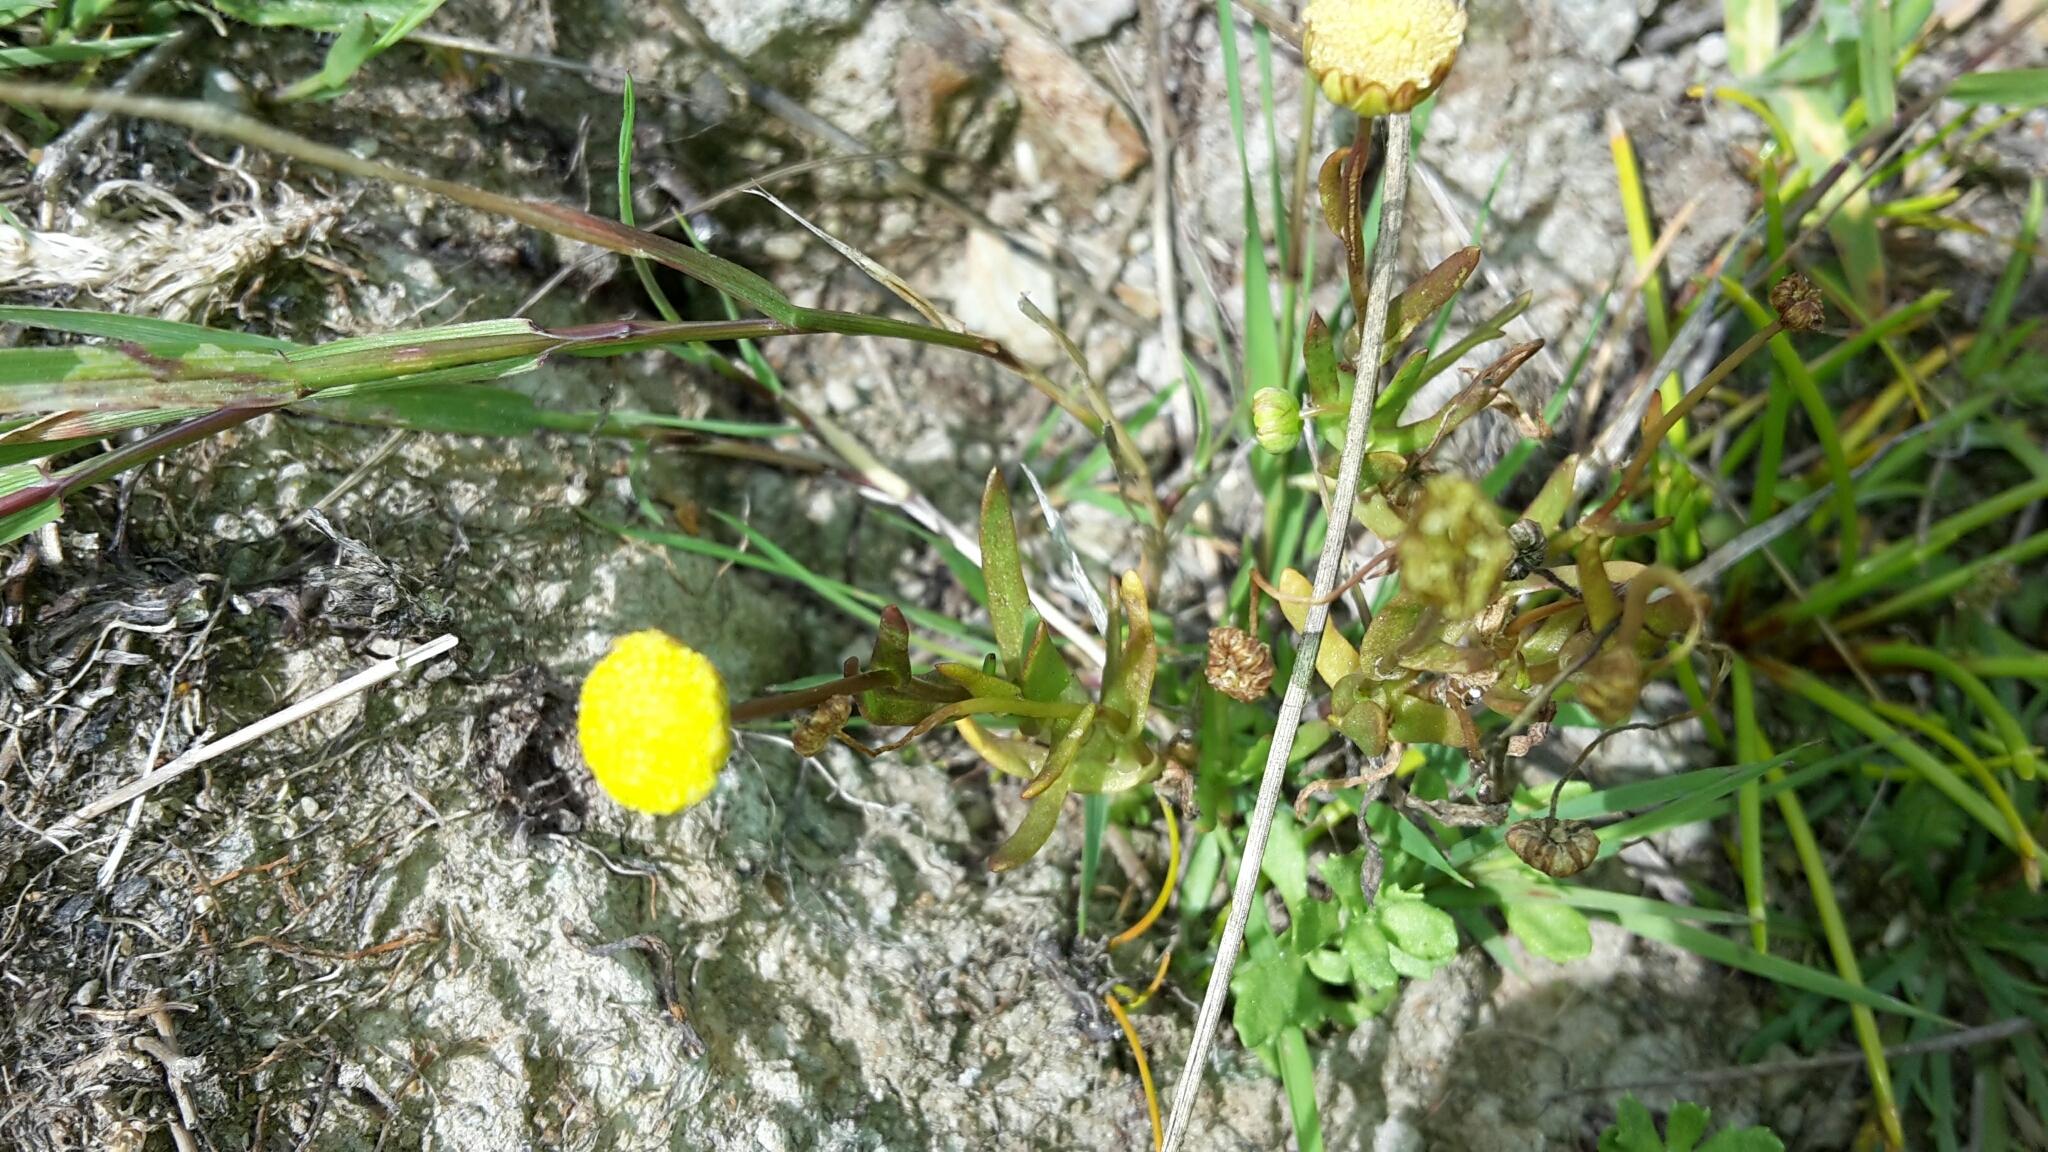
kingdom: Plantae
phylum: Tracheophyta
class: Magnoliopsida
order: Asterales
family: Asteraceae
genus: Cotula
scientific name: Cotula coronopifolia
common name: Buttonweed
